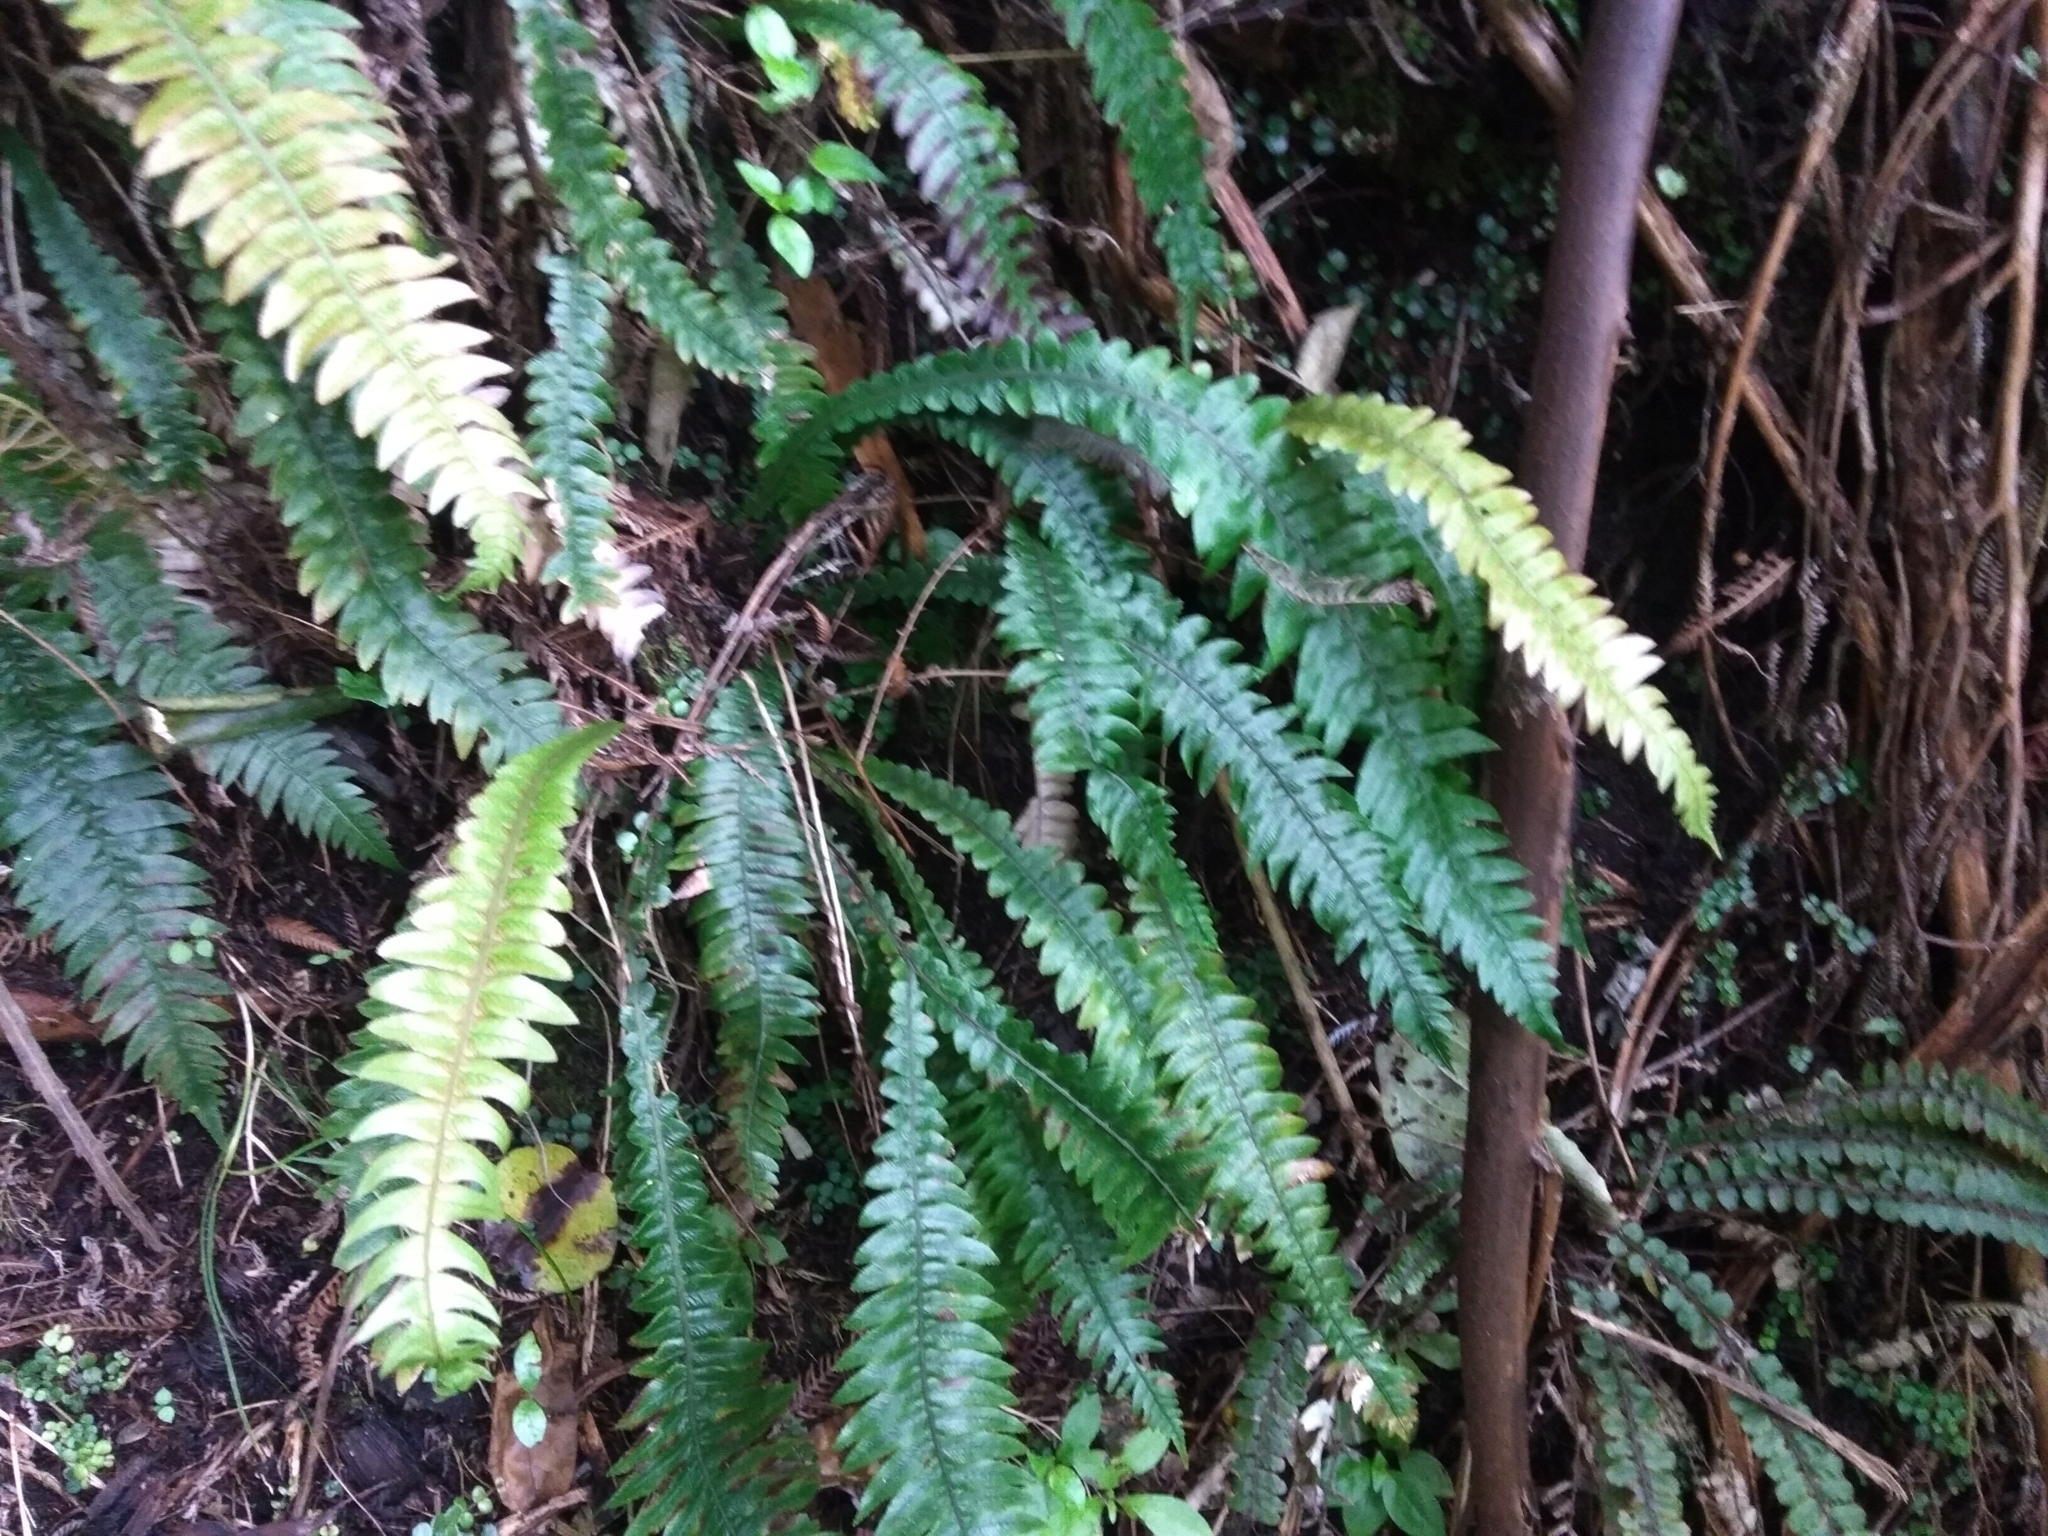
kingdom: Plantae
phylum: Tracheophyta
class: Polypodiopsida
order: Polypodiales
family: Blechnaceae
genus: Austroblechnum
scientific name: Austroblechnum lanceolatum
